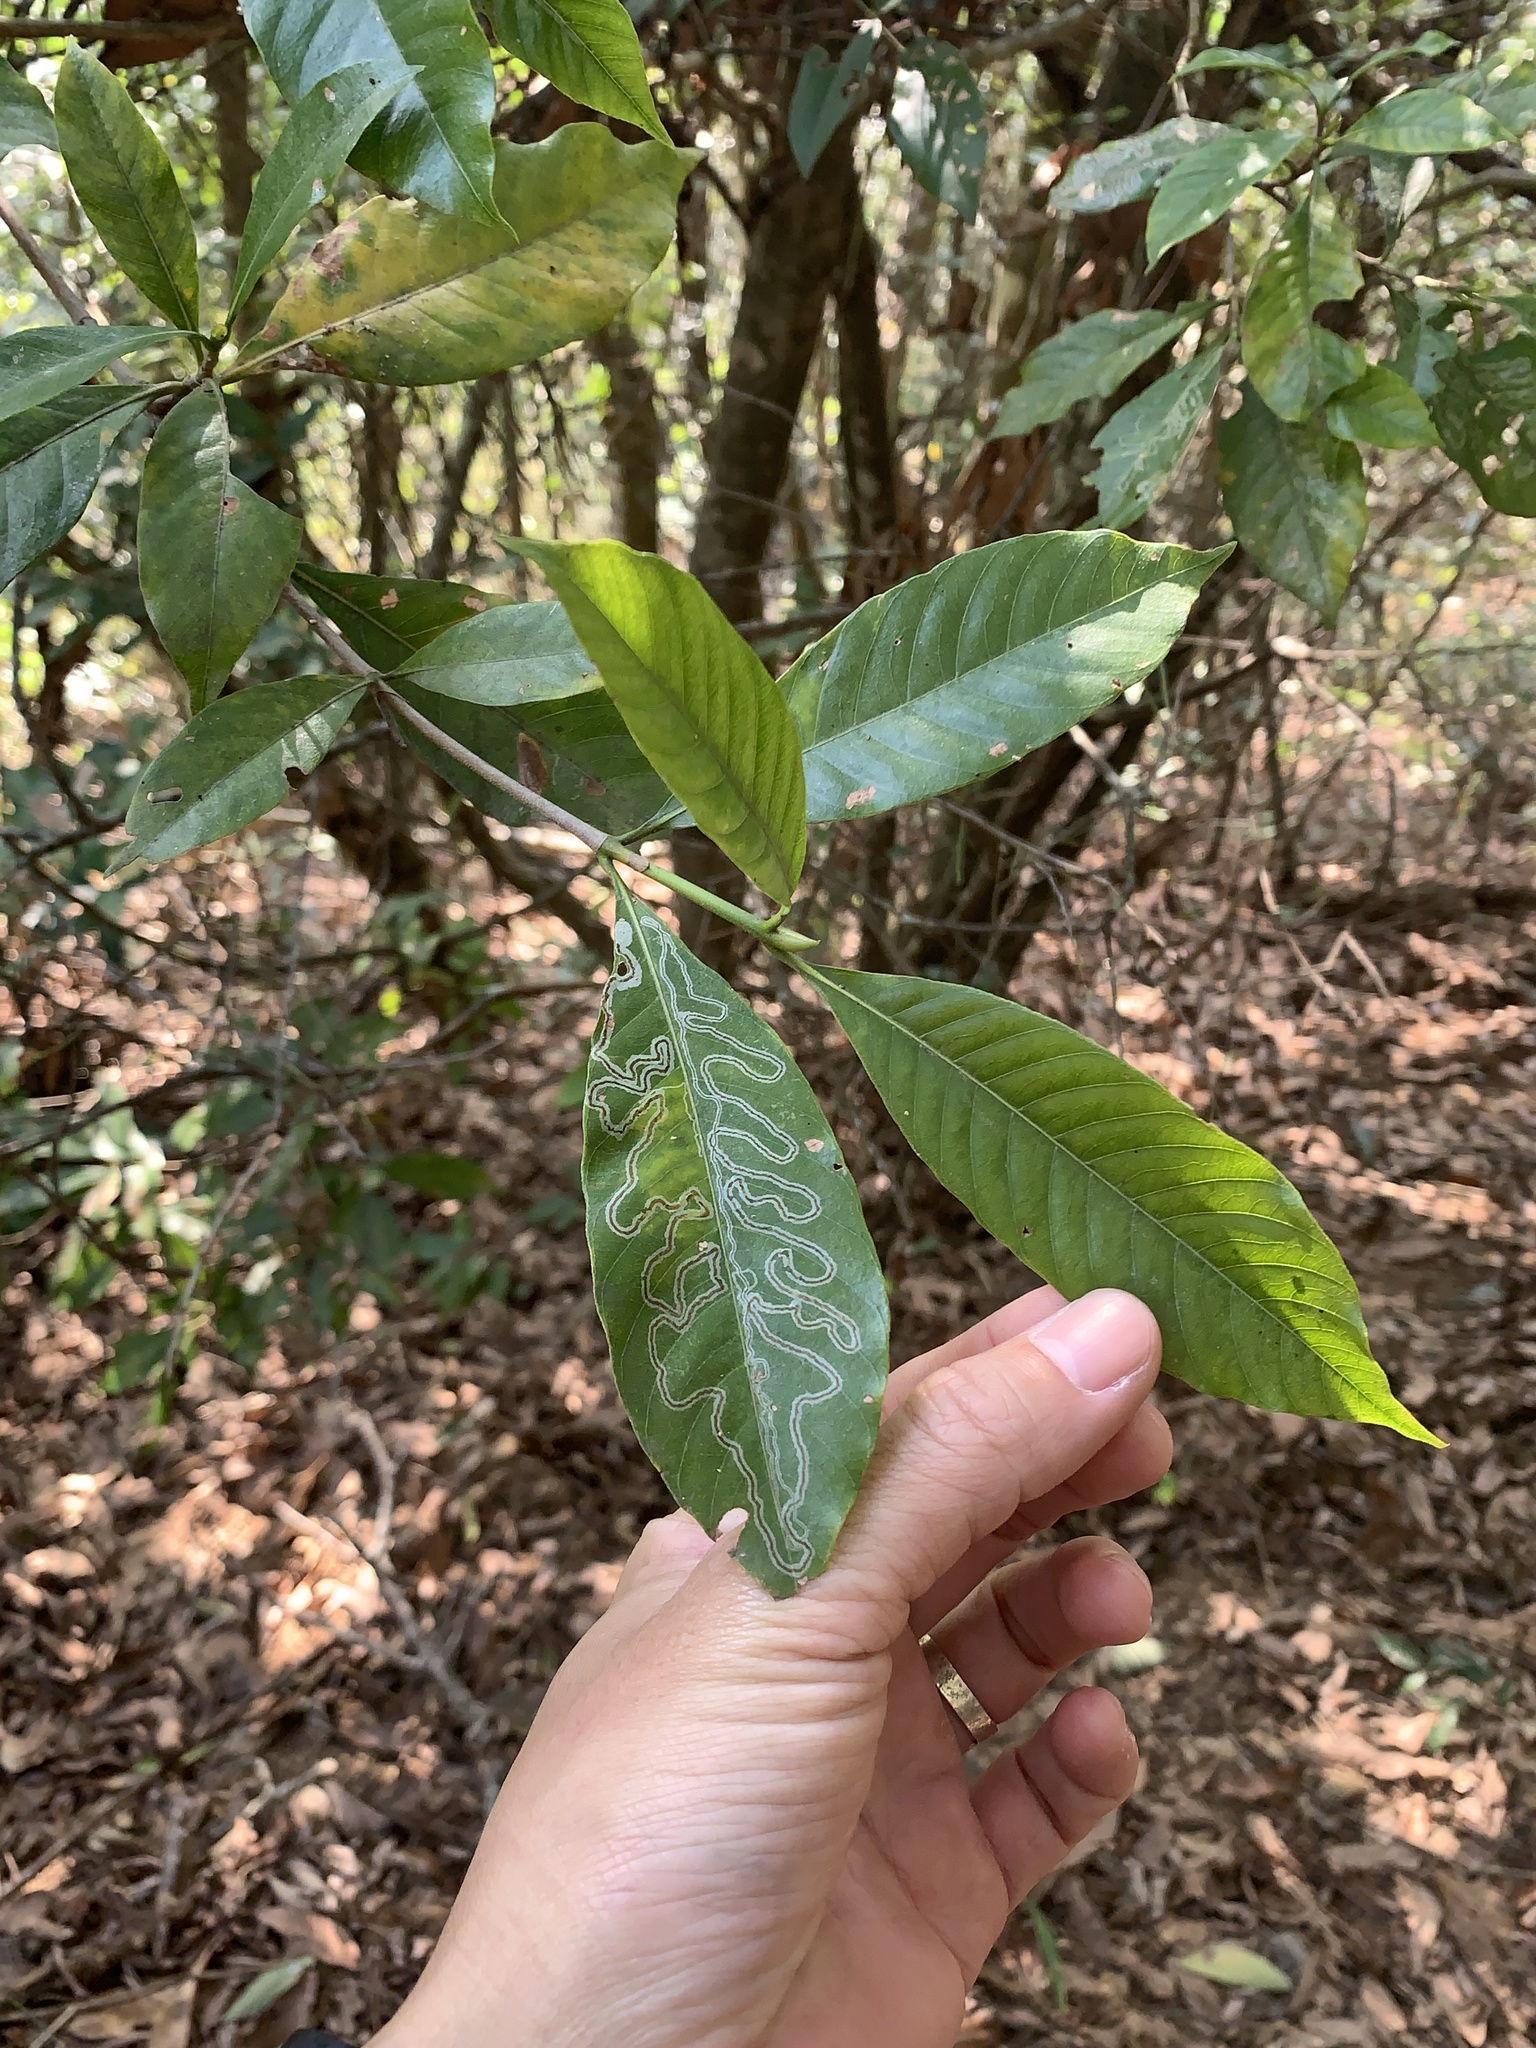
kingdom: Plantae
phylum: Tracheophyta
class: Magnoliopsida
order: Gentianales
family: Rubiaceae
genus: Gardenia
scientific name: Gardenia jasminoides
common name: Cape-jasmine
